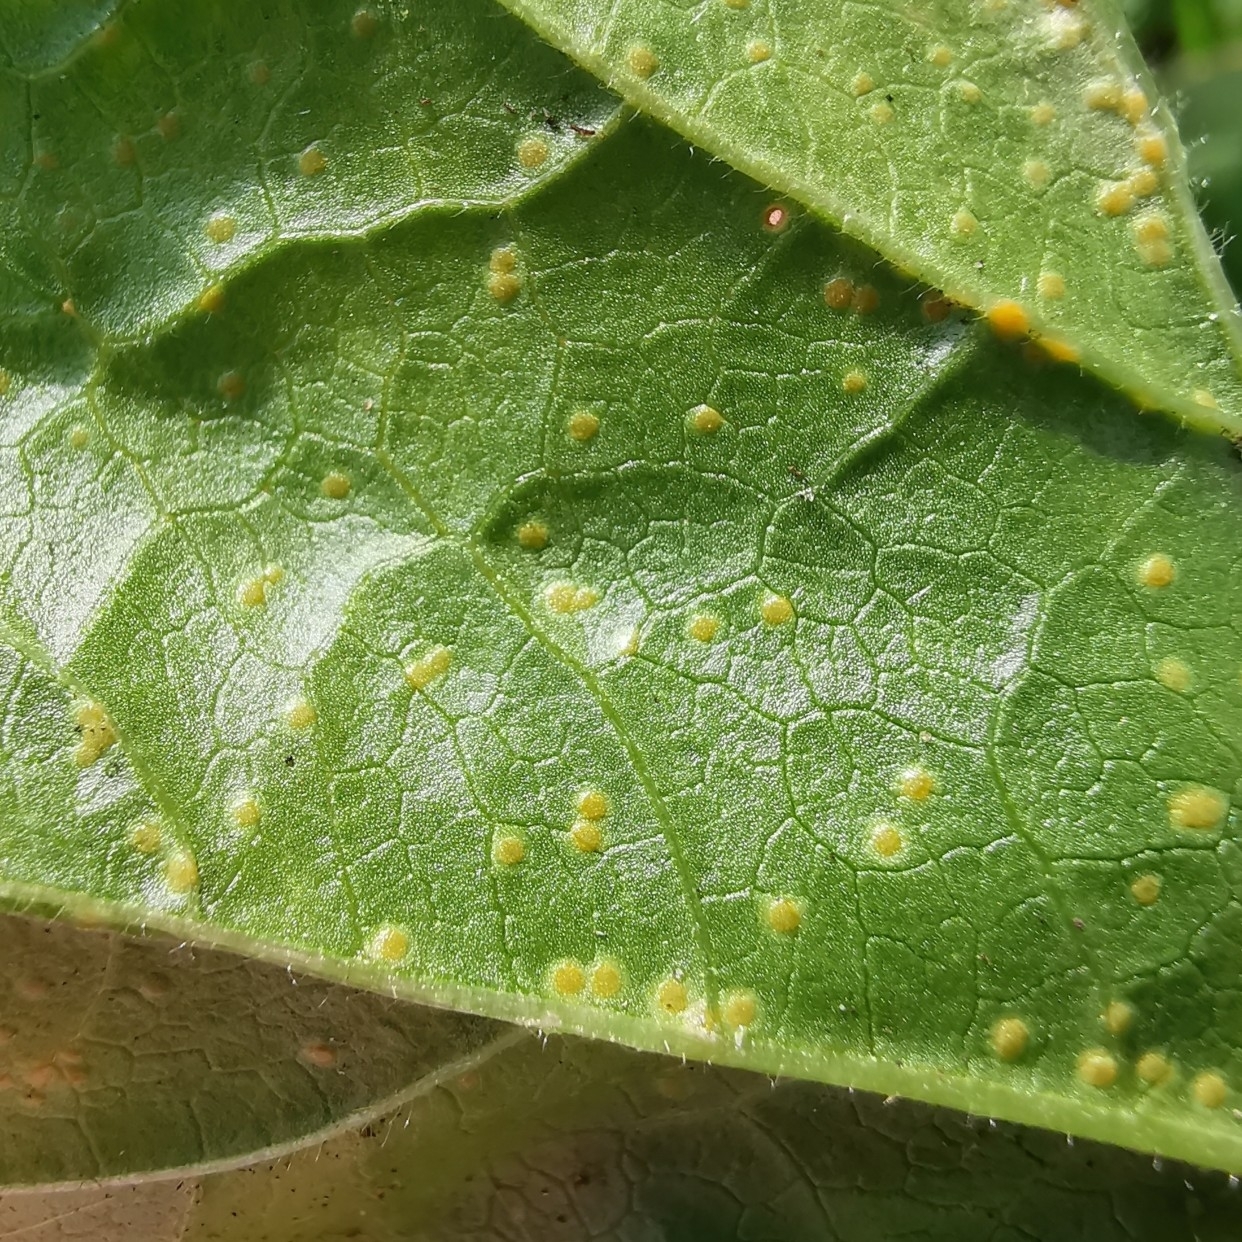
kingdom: Fungi
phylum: Basidiomycota
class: Pucciniomycetes
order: Pucciniales
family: Pucciniaceae
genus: Puccinia
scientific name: Puccinia malvacearum
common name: Hollyhock rust
